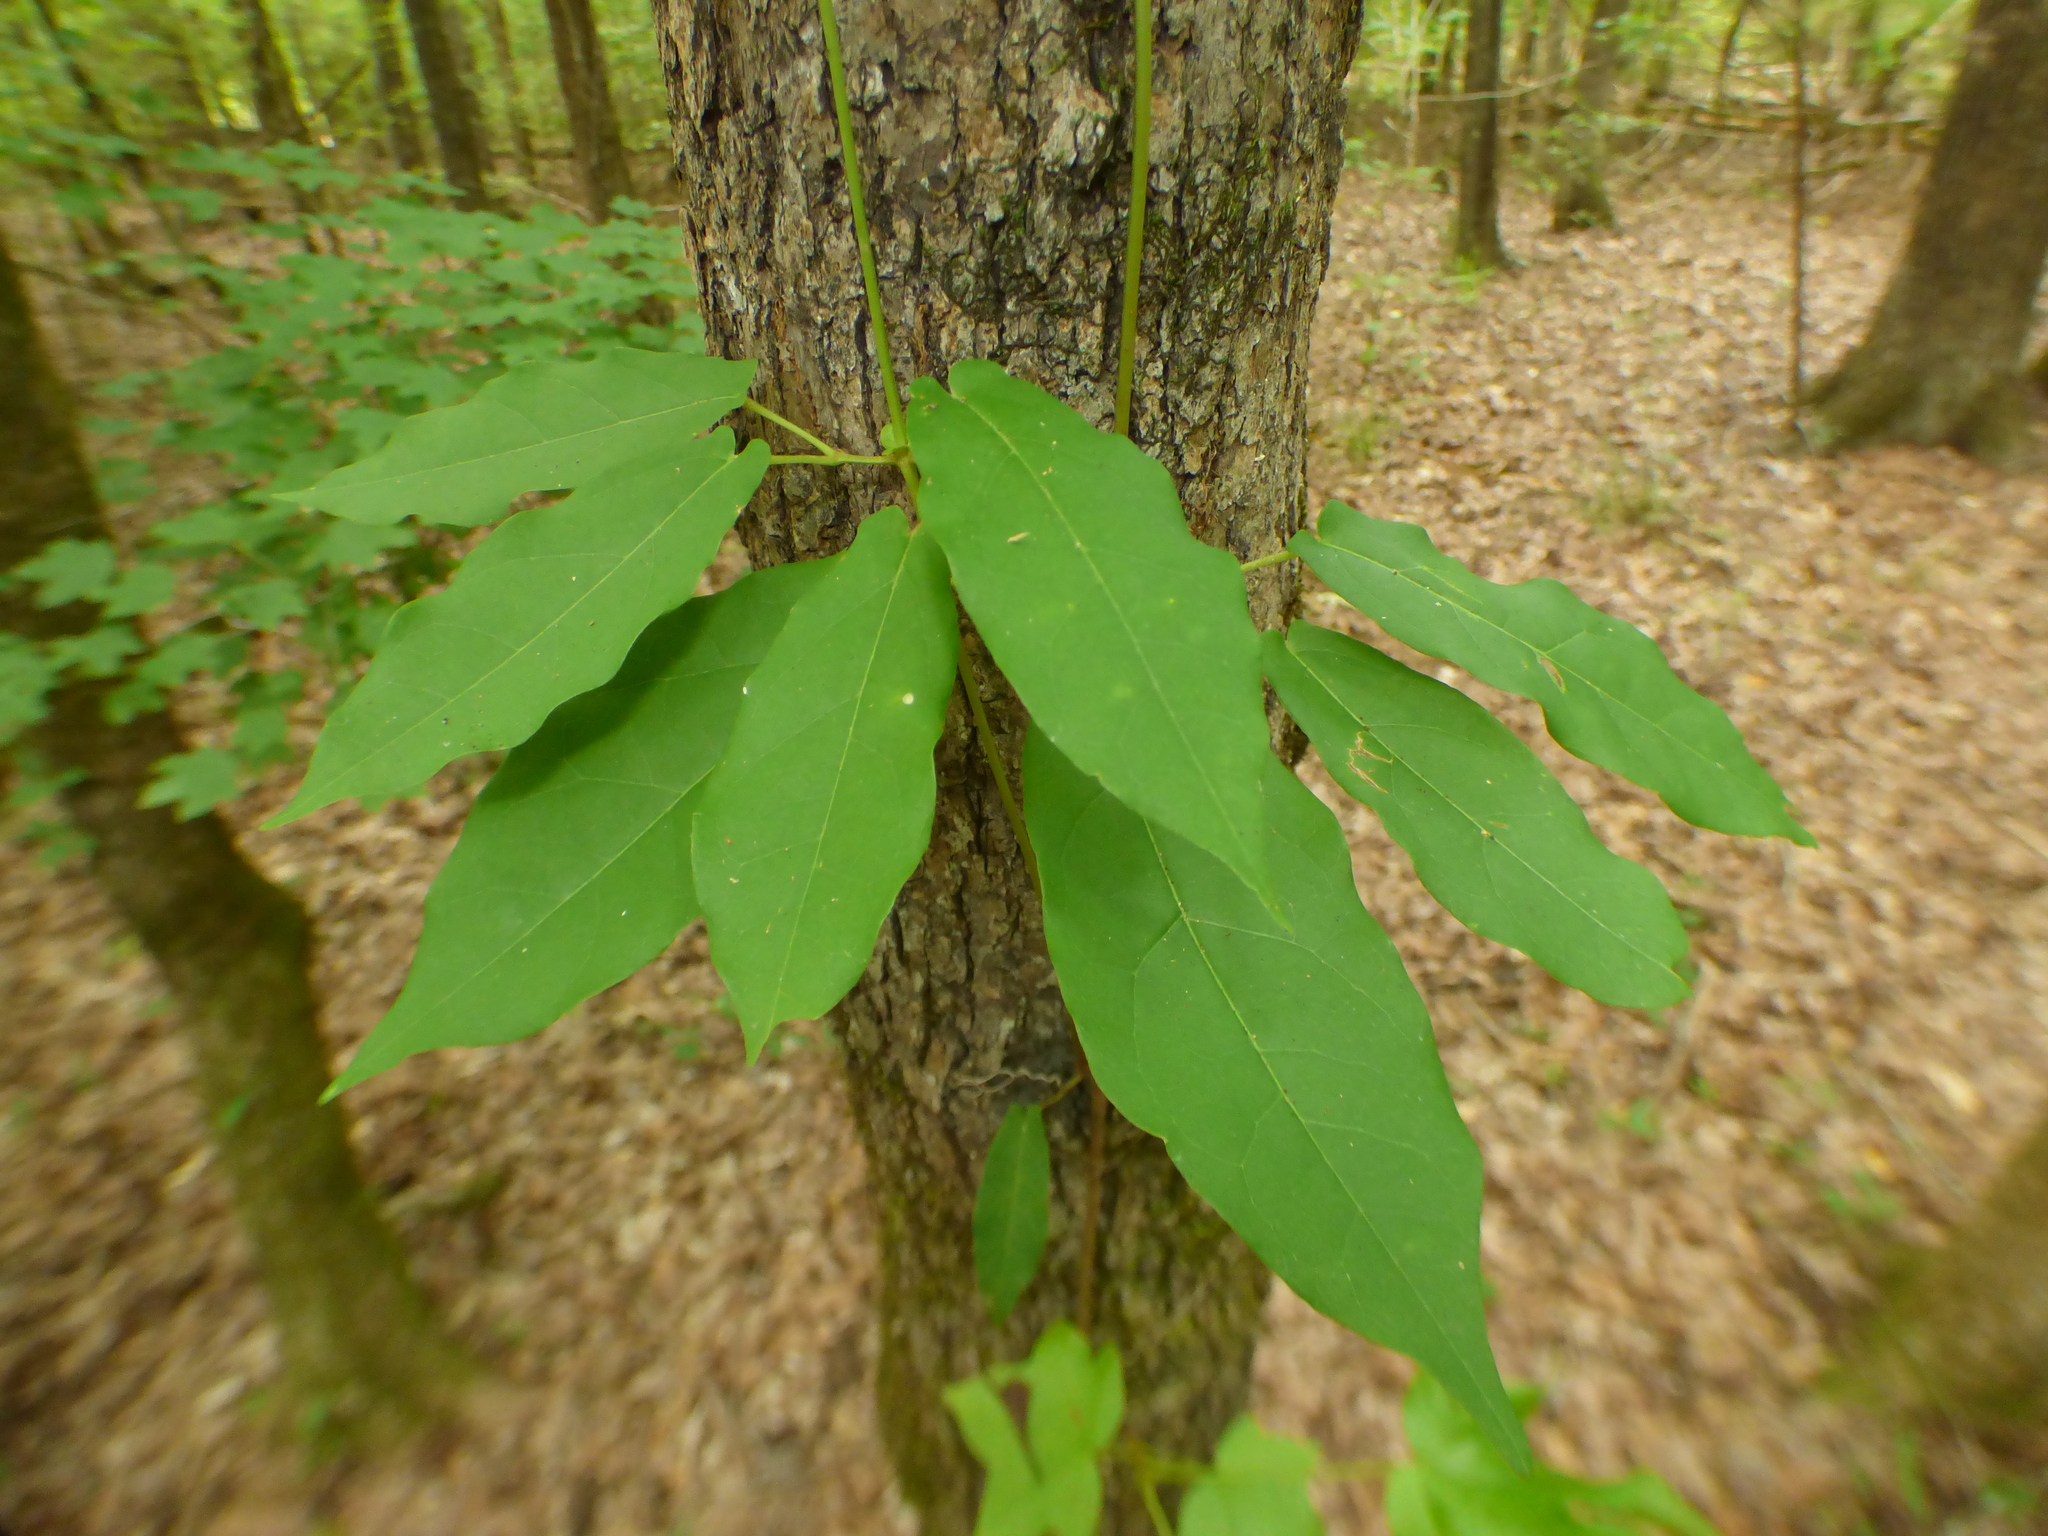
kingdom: Plantae
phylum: Tracheophyta
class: Magnoliopsida
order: Lamiales
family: Bignoniaceae
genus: Bignonia
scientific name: Bignonia capreolata
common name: Crossvine
